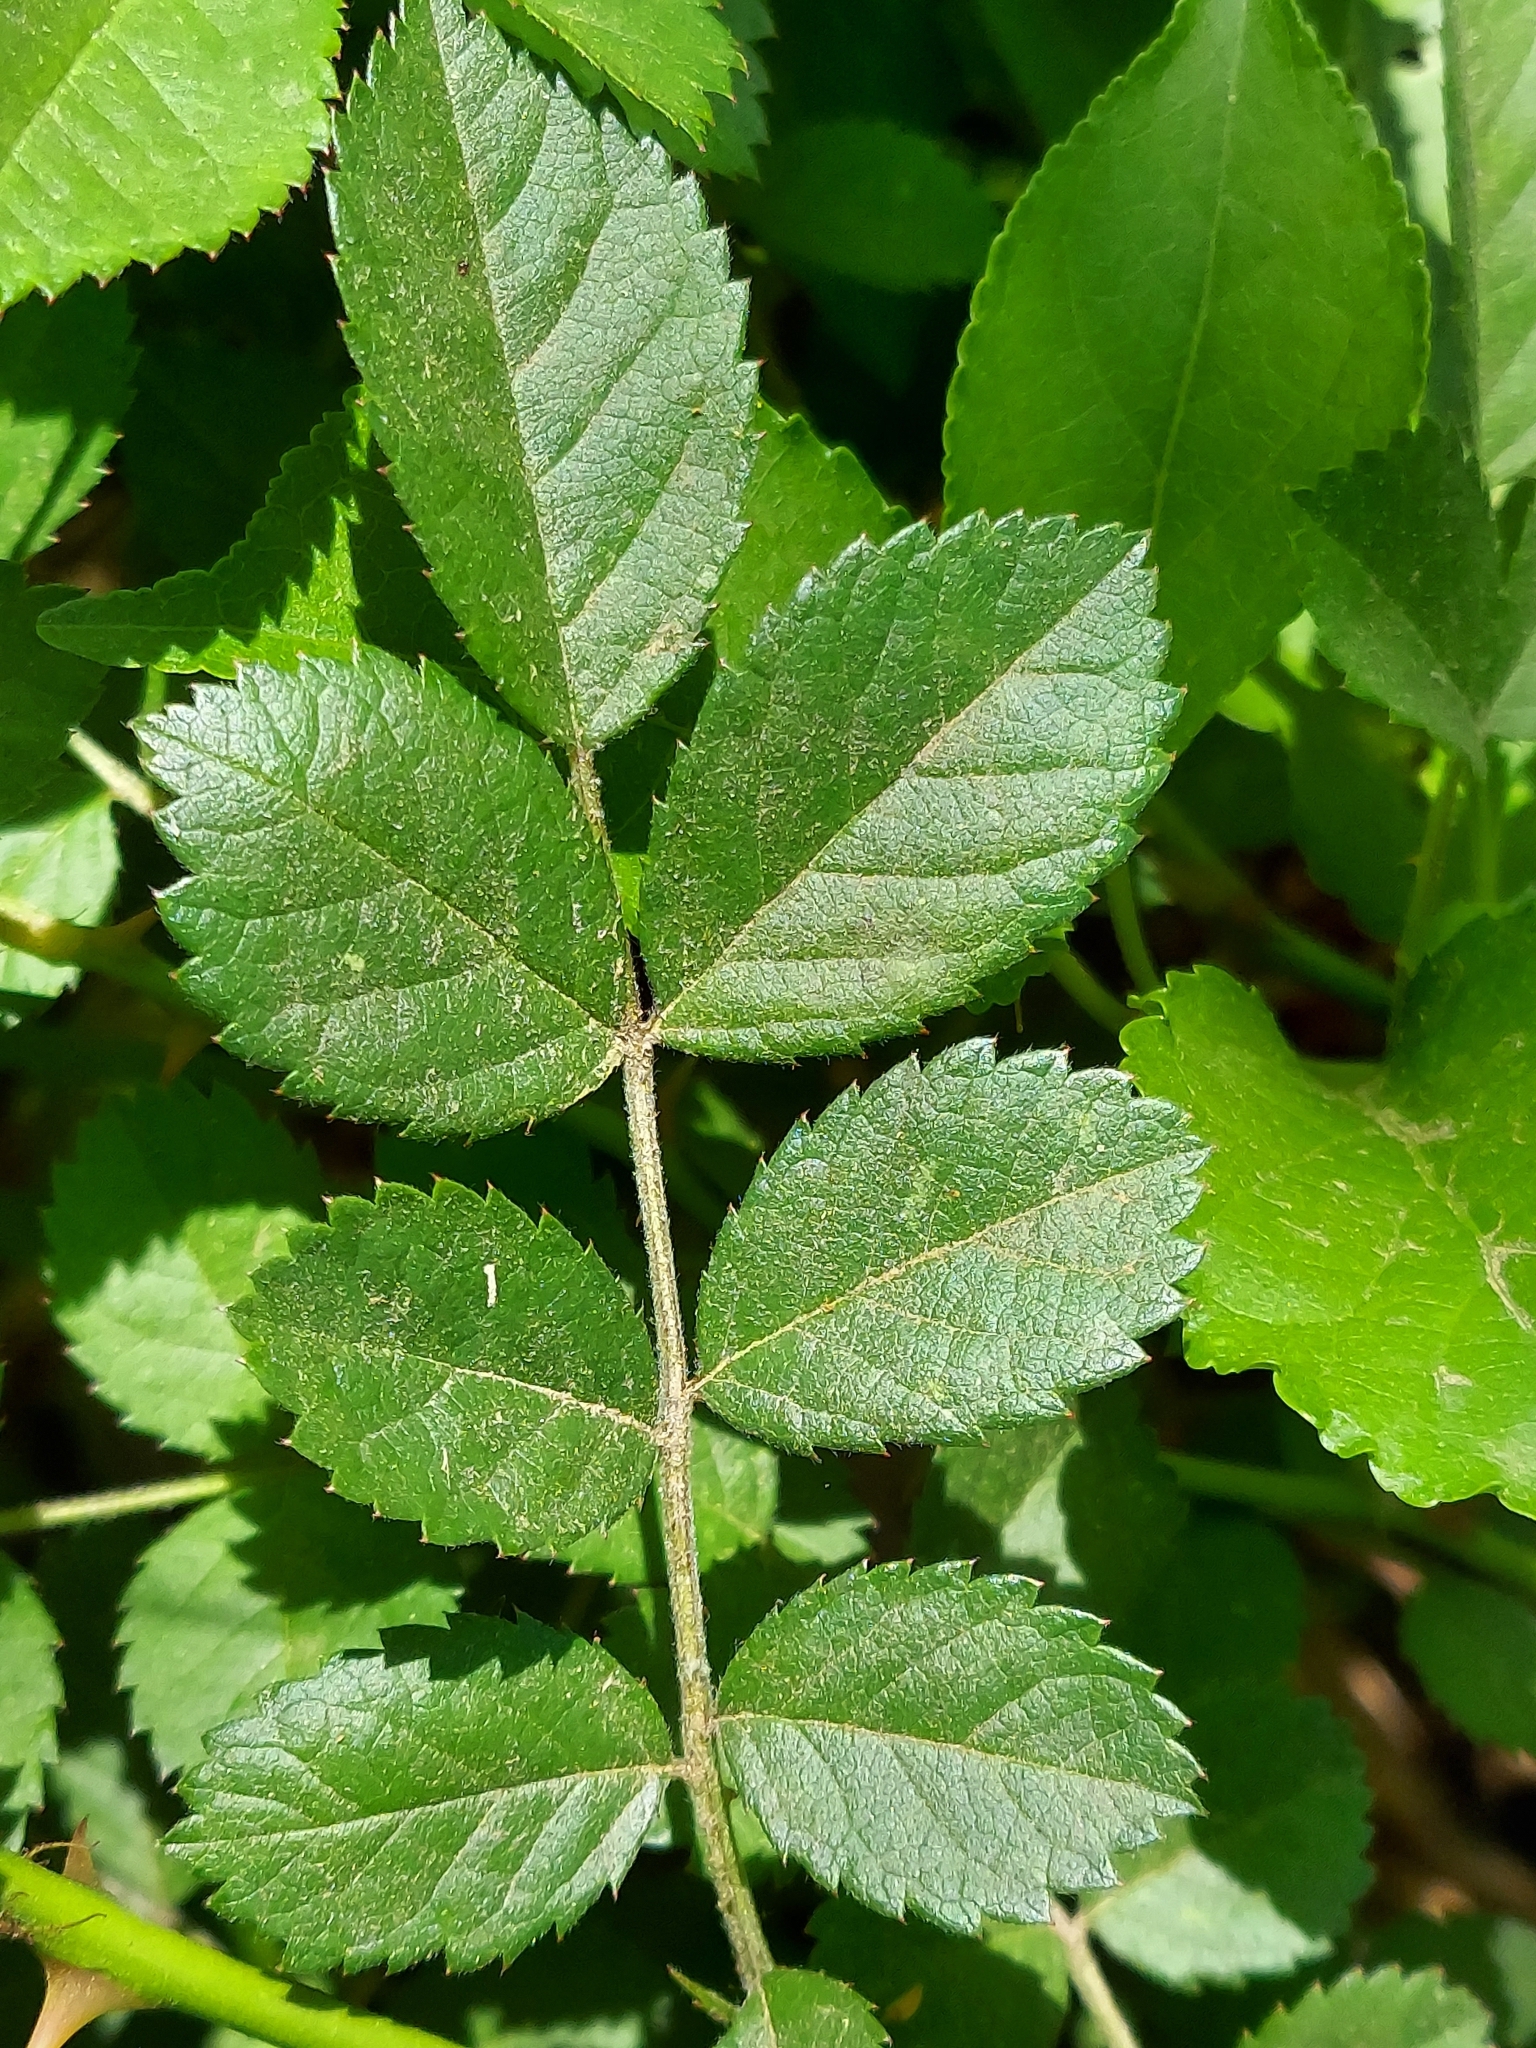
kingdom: Plantae
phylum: Tracheophyta
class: Magnoliopsida
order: Rosales
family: Rosaceae
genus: Rosa
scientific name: Rosa multiflora
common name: Multiflora rose
